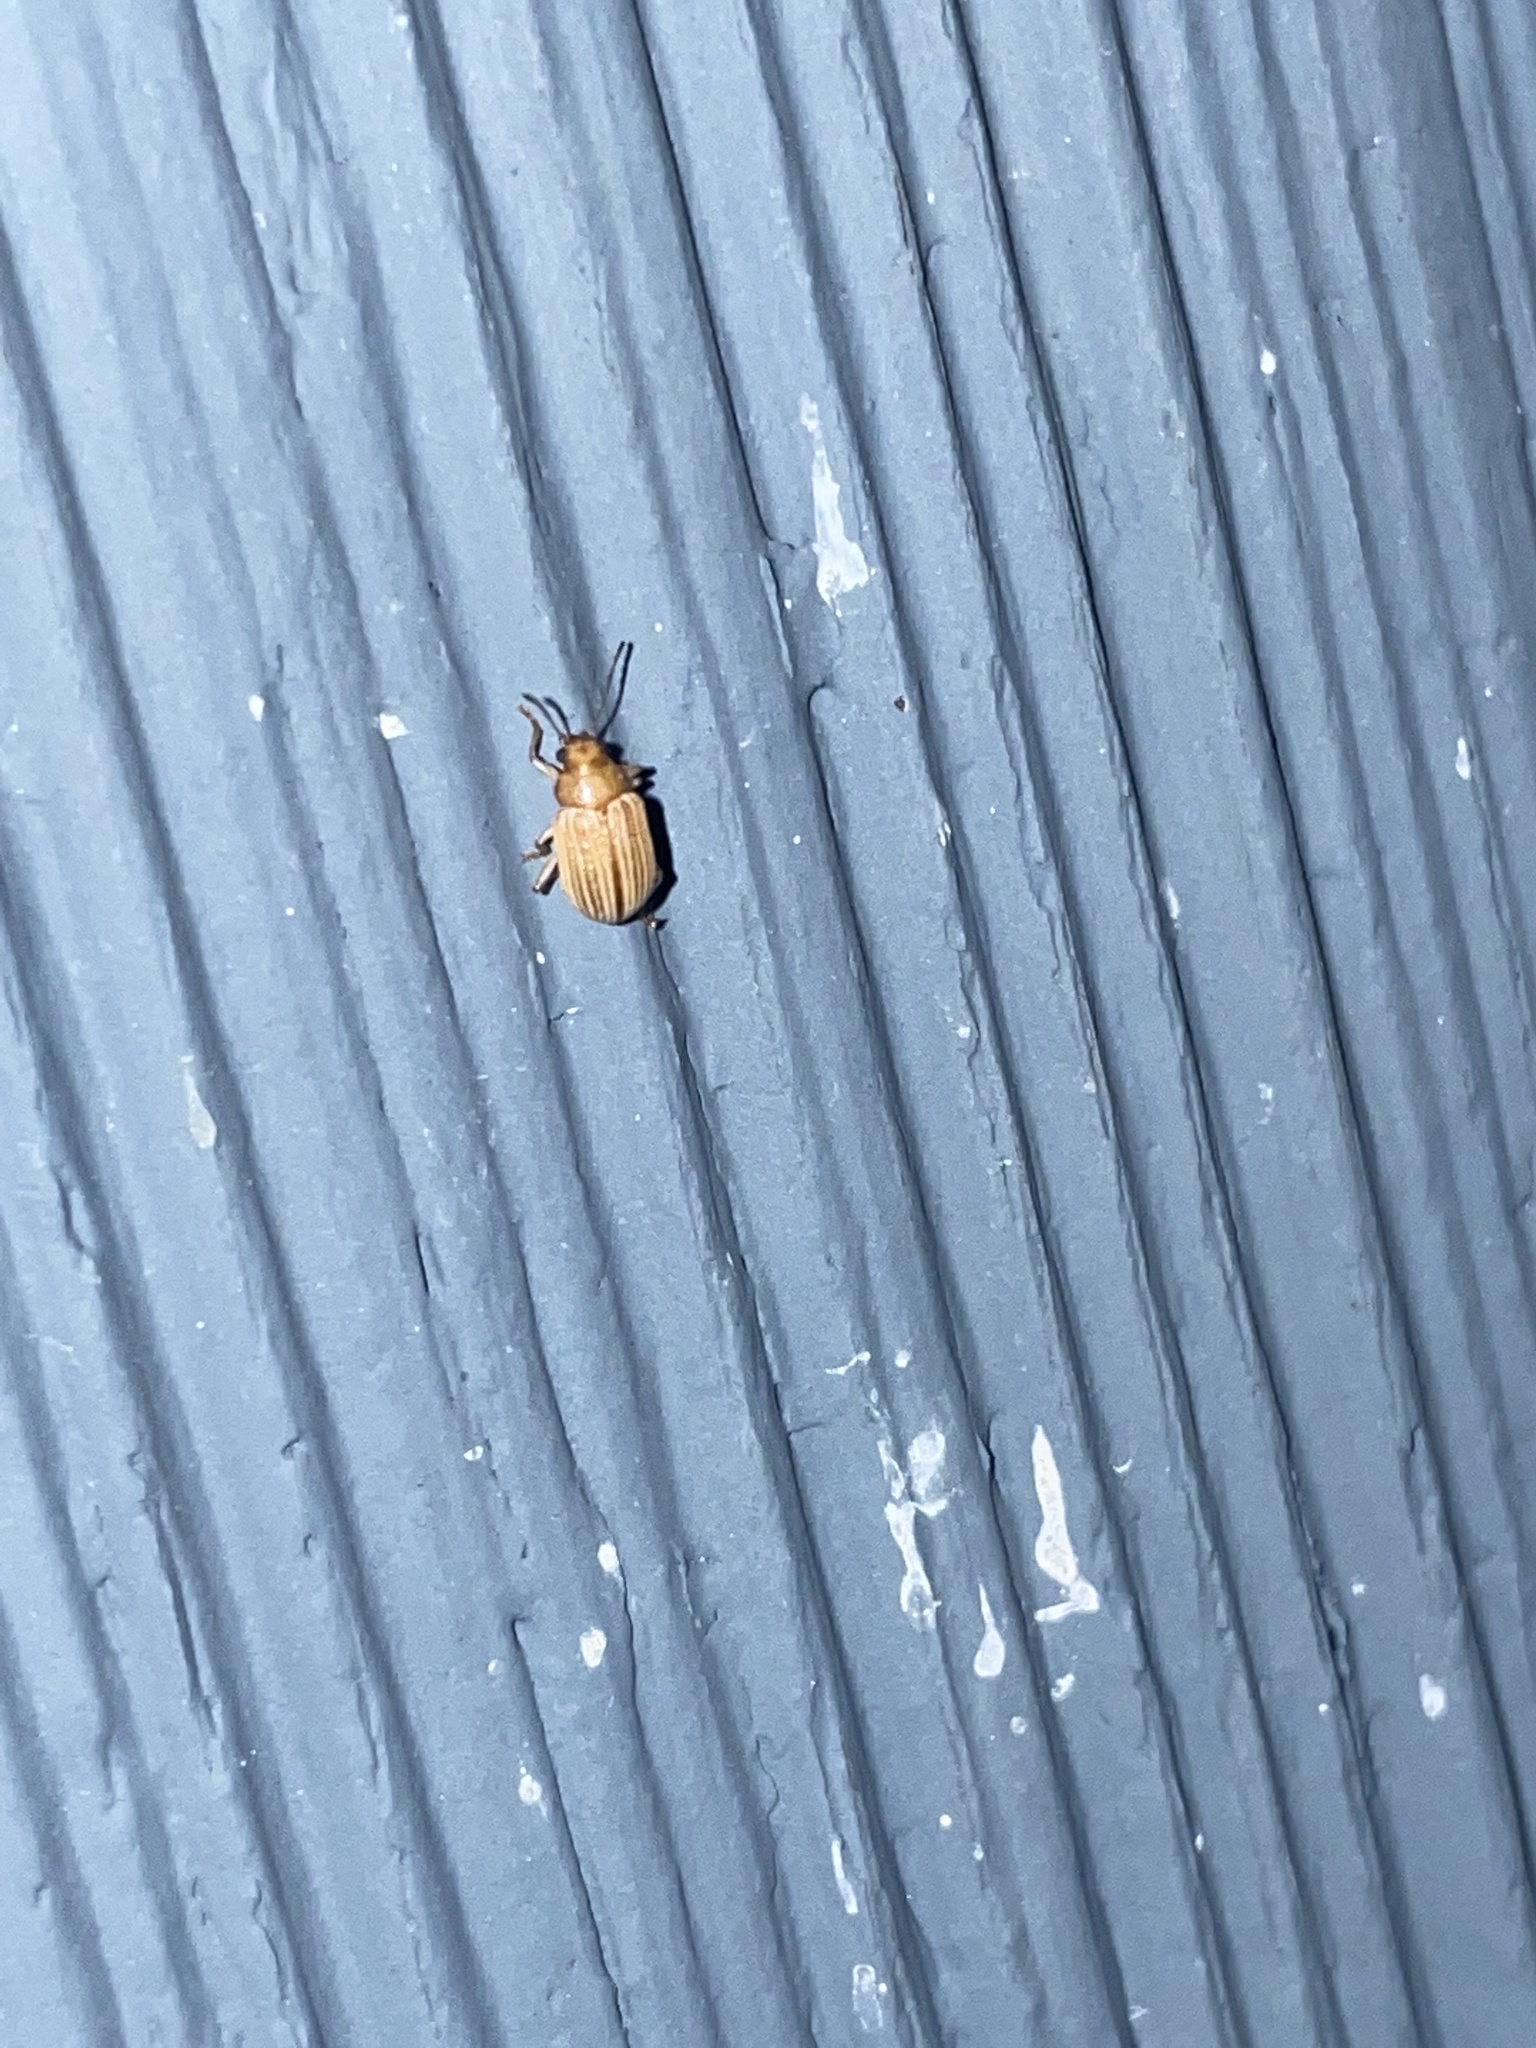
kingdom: Animalia
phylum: Arthropoda
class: Insecta
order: Coleoptera
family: Chrysomelidae
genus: Colaspis
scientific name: Colaspis brunnea
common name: Grape colaspis
